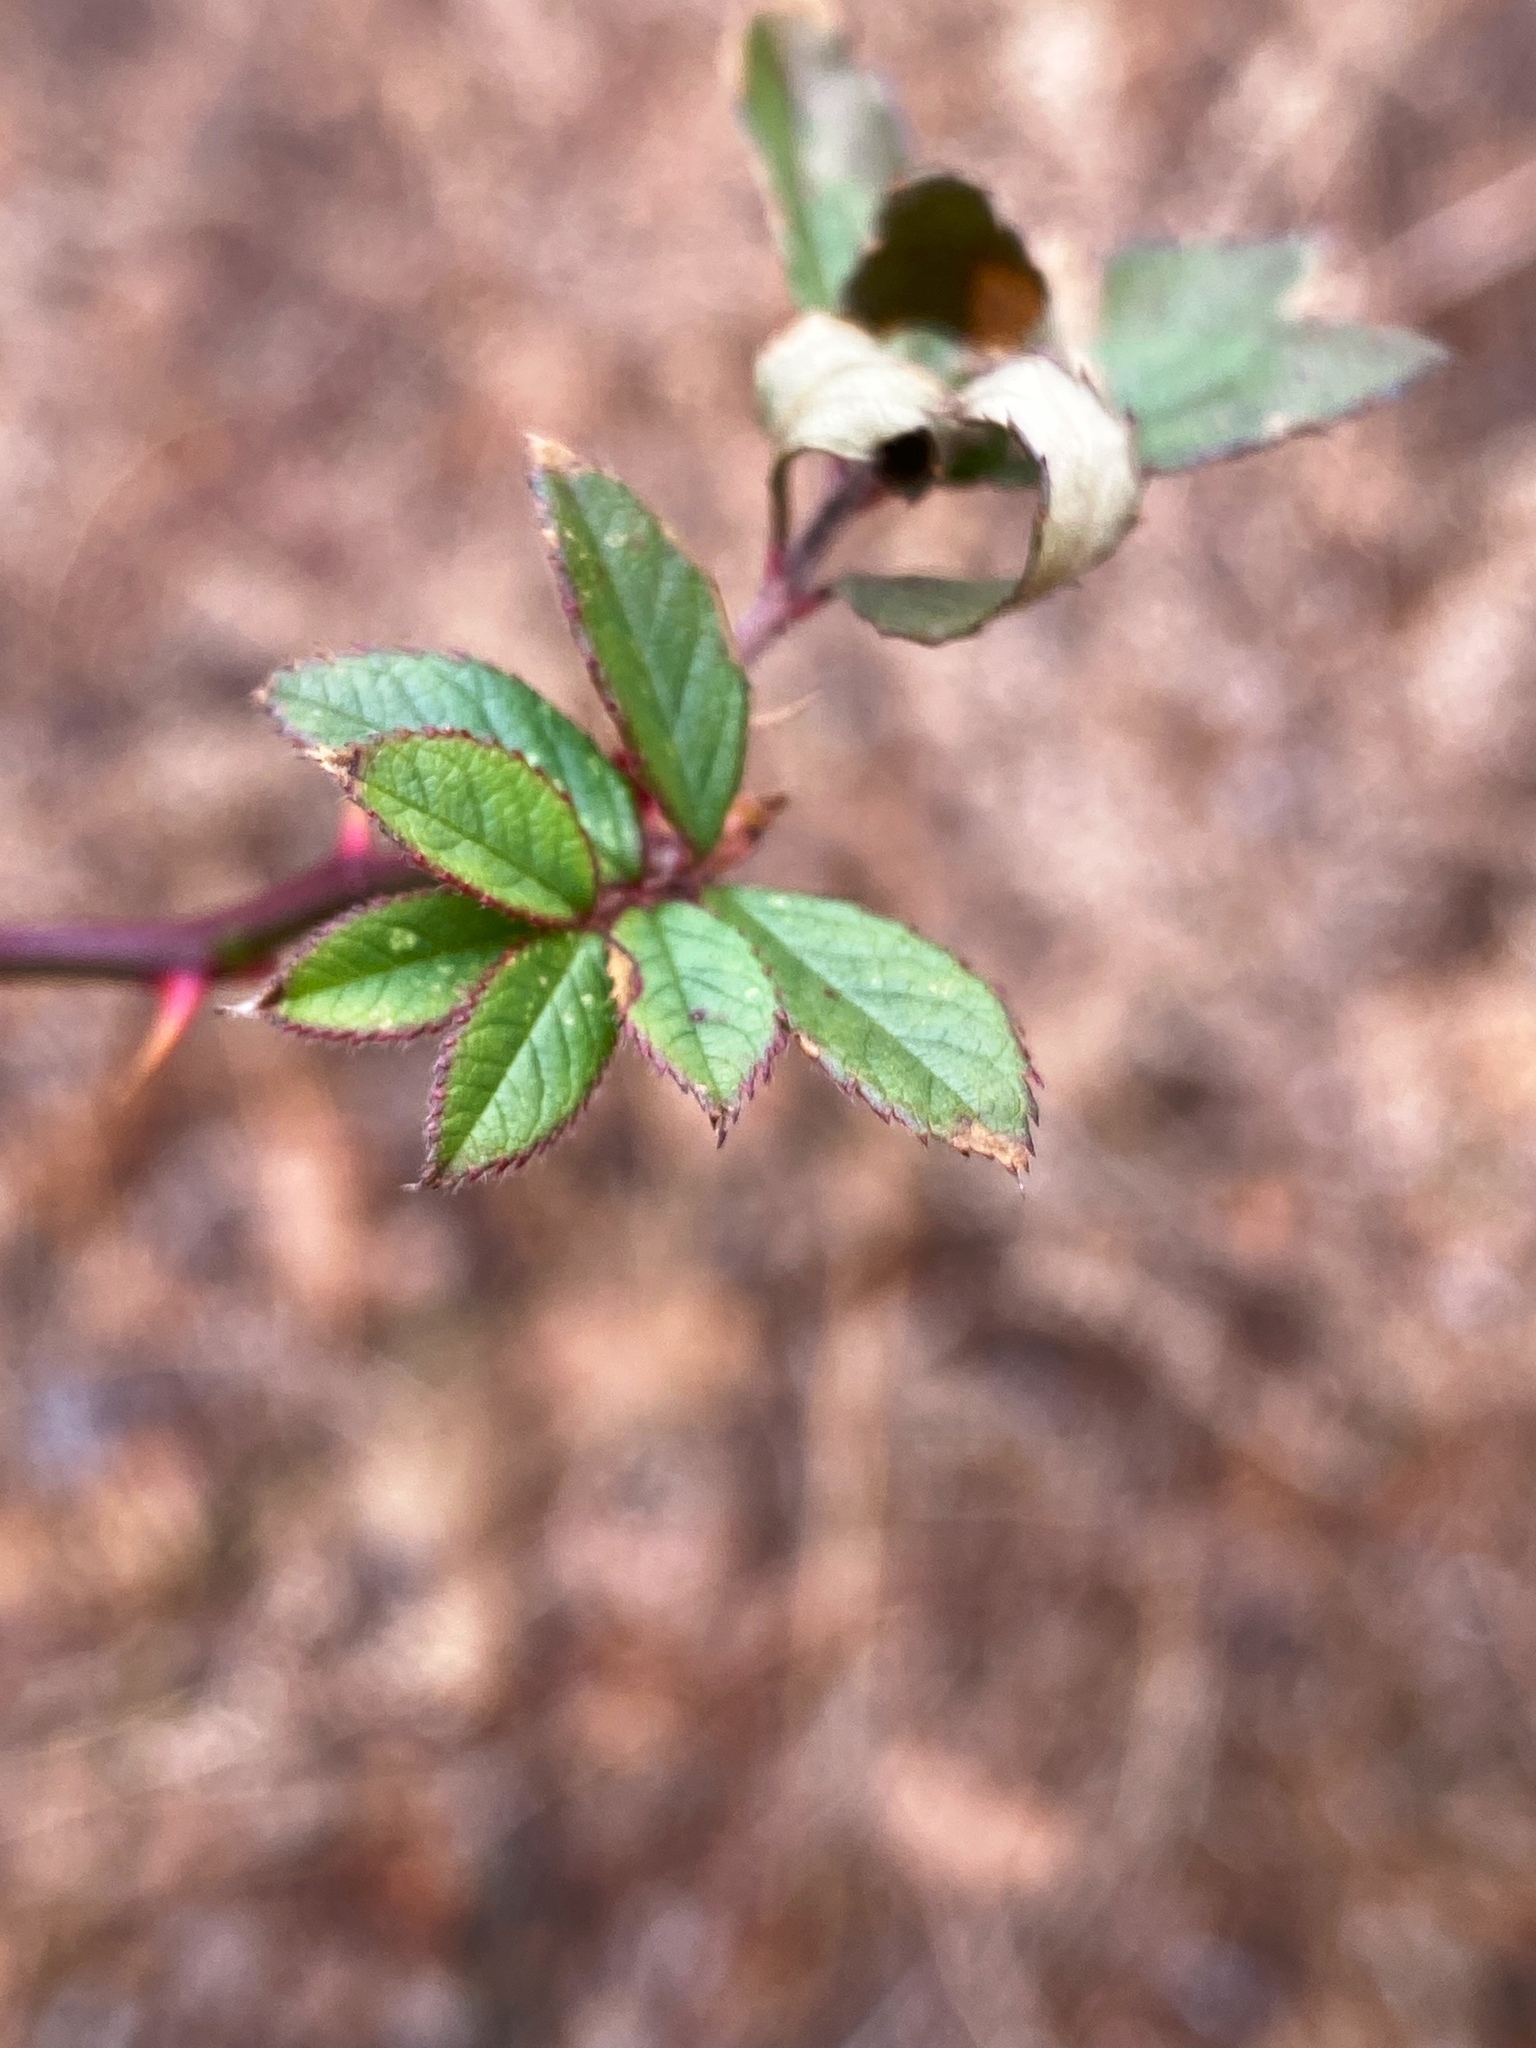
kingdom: Plantae
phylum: Tracheophyta
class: Magnoliopsida
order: Rosales
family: Rosaceae
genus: Rosa
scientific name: Rosa multiflora
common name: Multiflora rose
